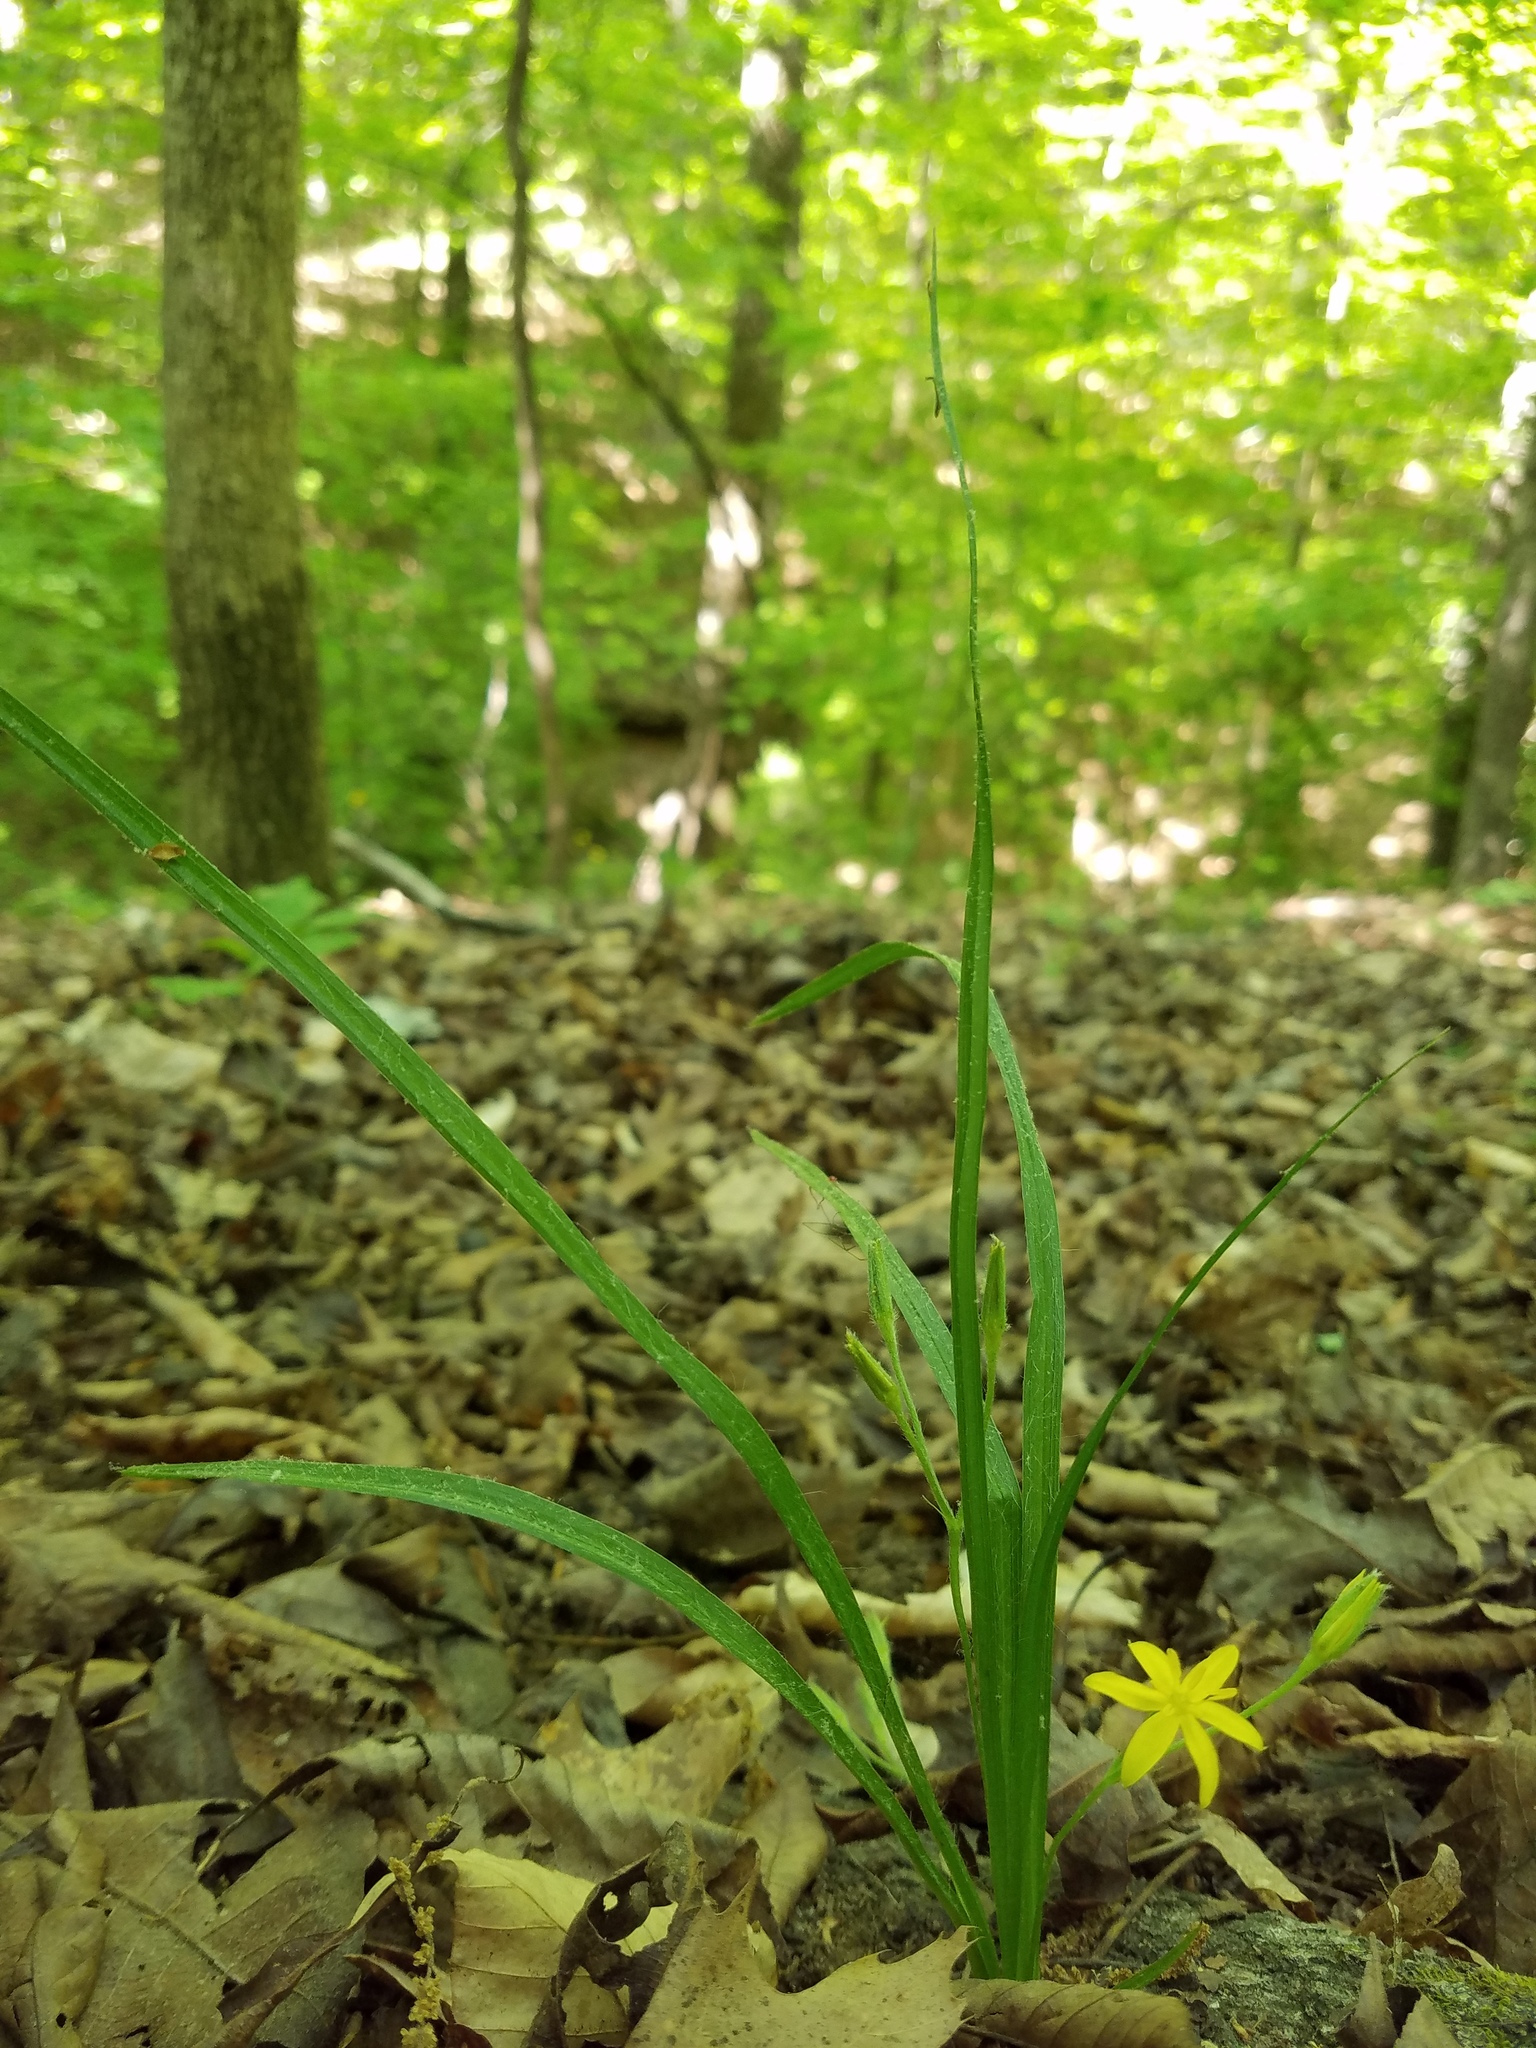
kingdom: Plantae
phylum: Tracheophyta
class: Liliopsida
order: Asparagales
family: Hypoxidaceae
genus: Hypoxis
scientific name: Hypoxis hirsuta
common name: Common goldstar
